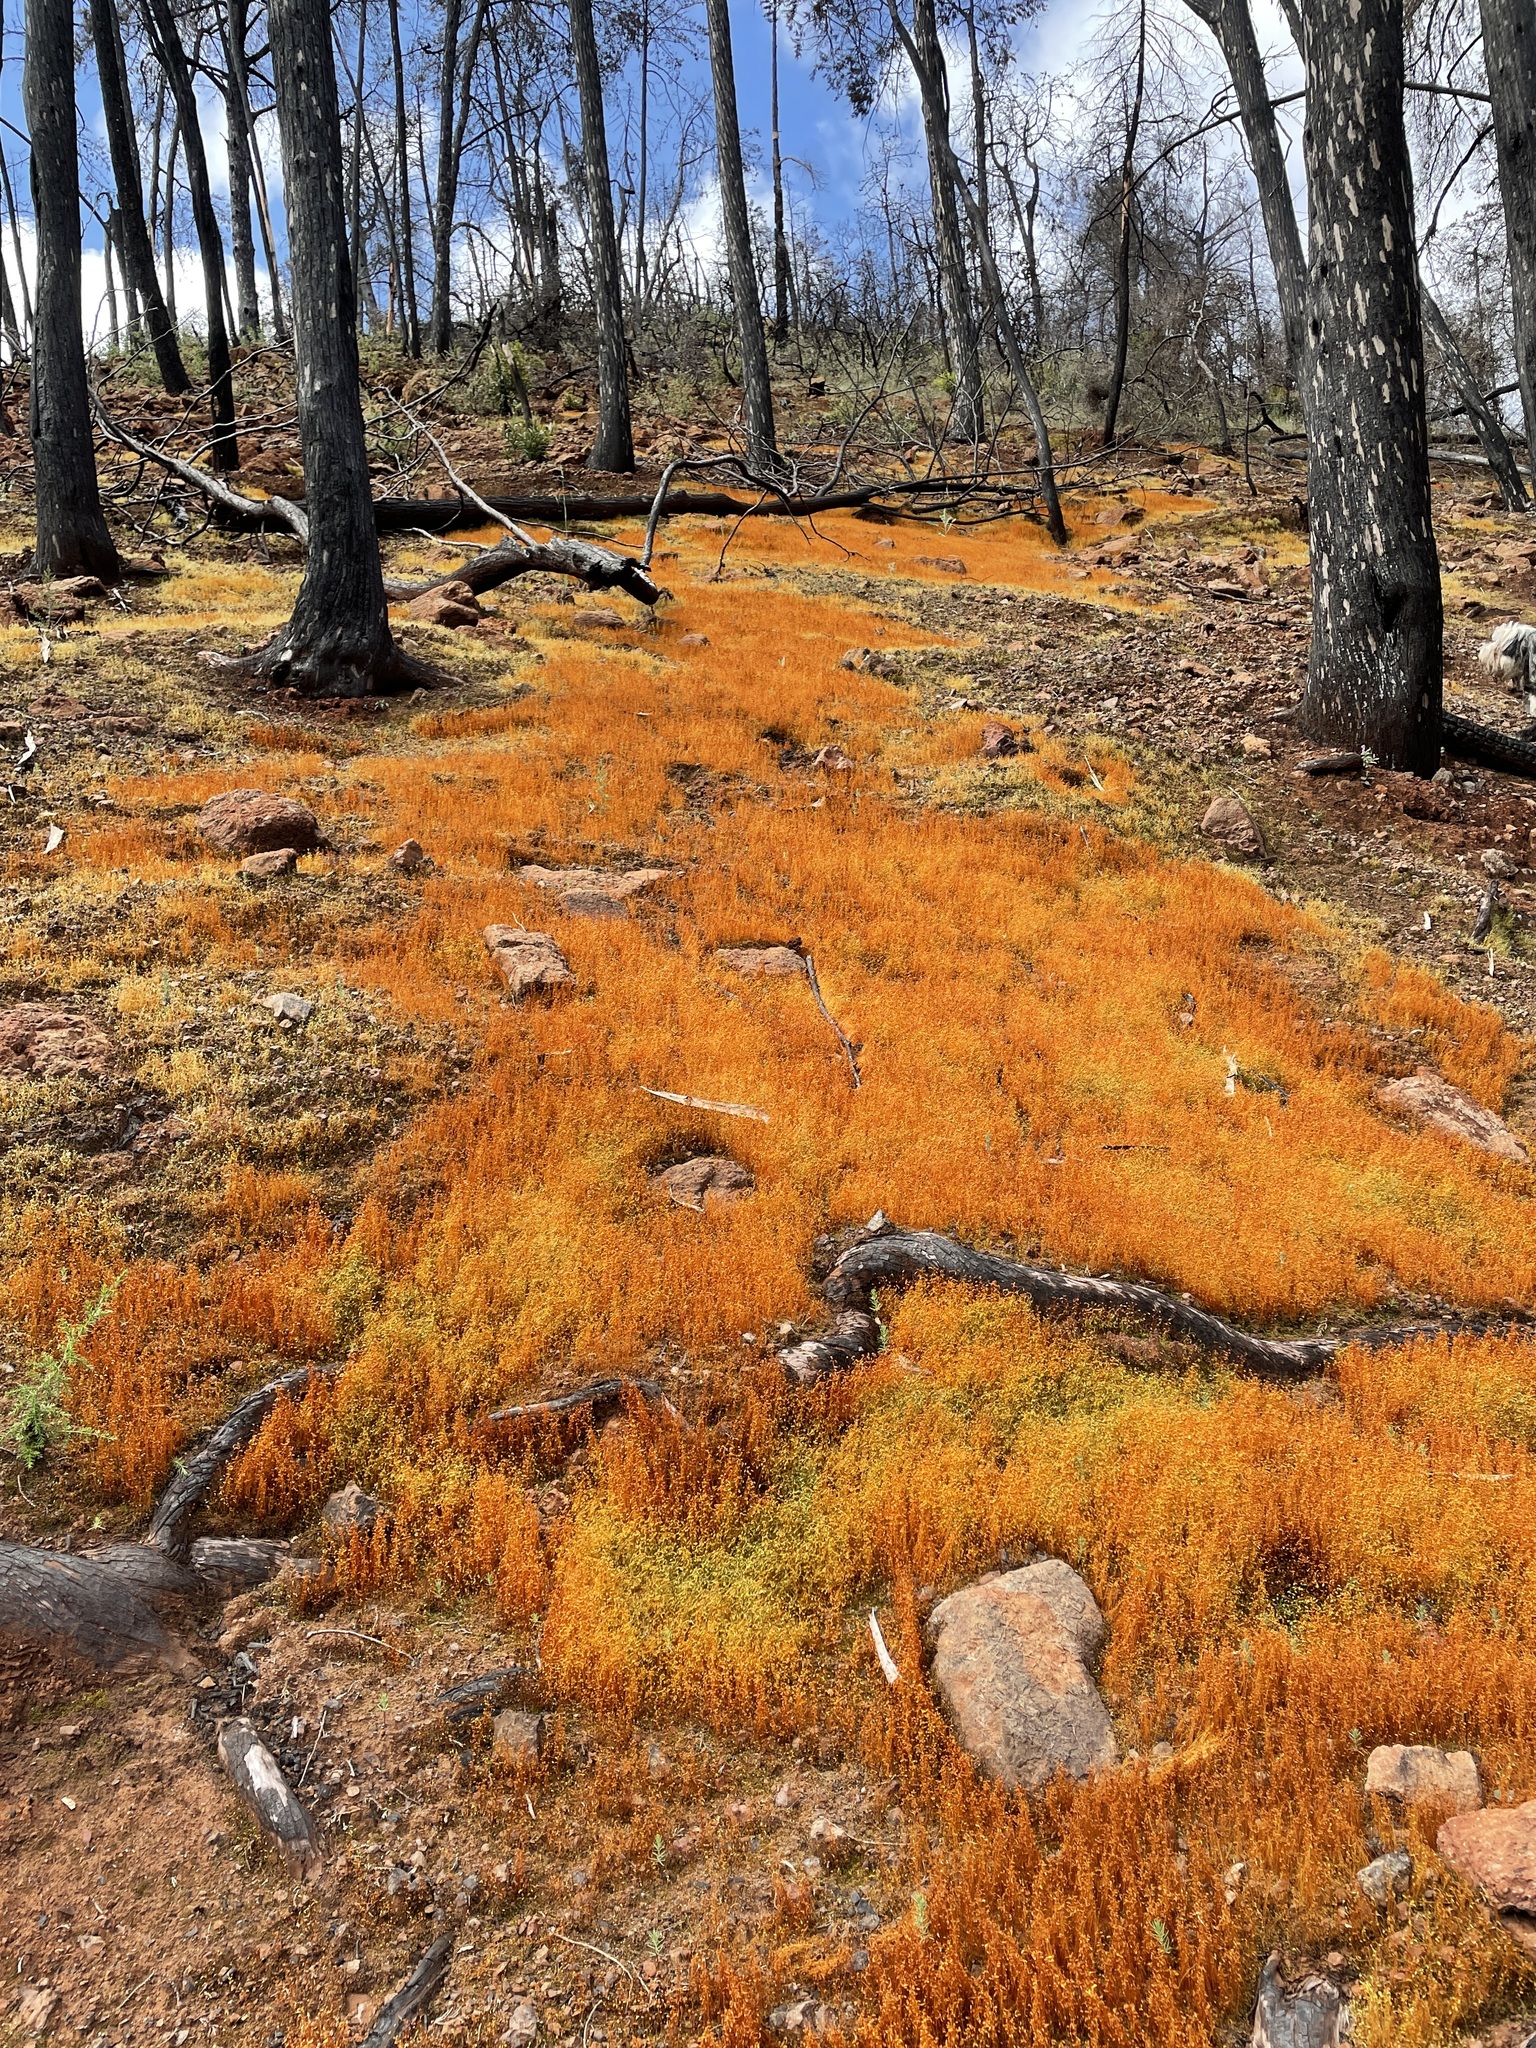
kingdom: Plantae
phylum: Bryophyta
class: Bryopsida
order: Funariales
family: Funariaceae
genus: Funaria
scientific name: Funaria hygrometrica
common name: Common cord moss
